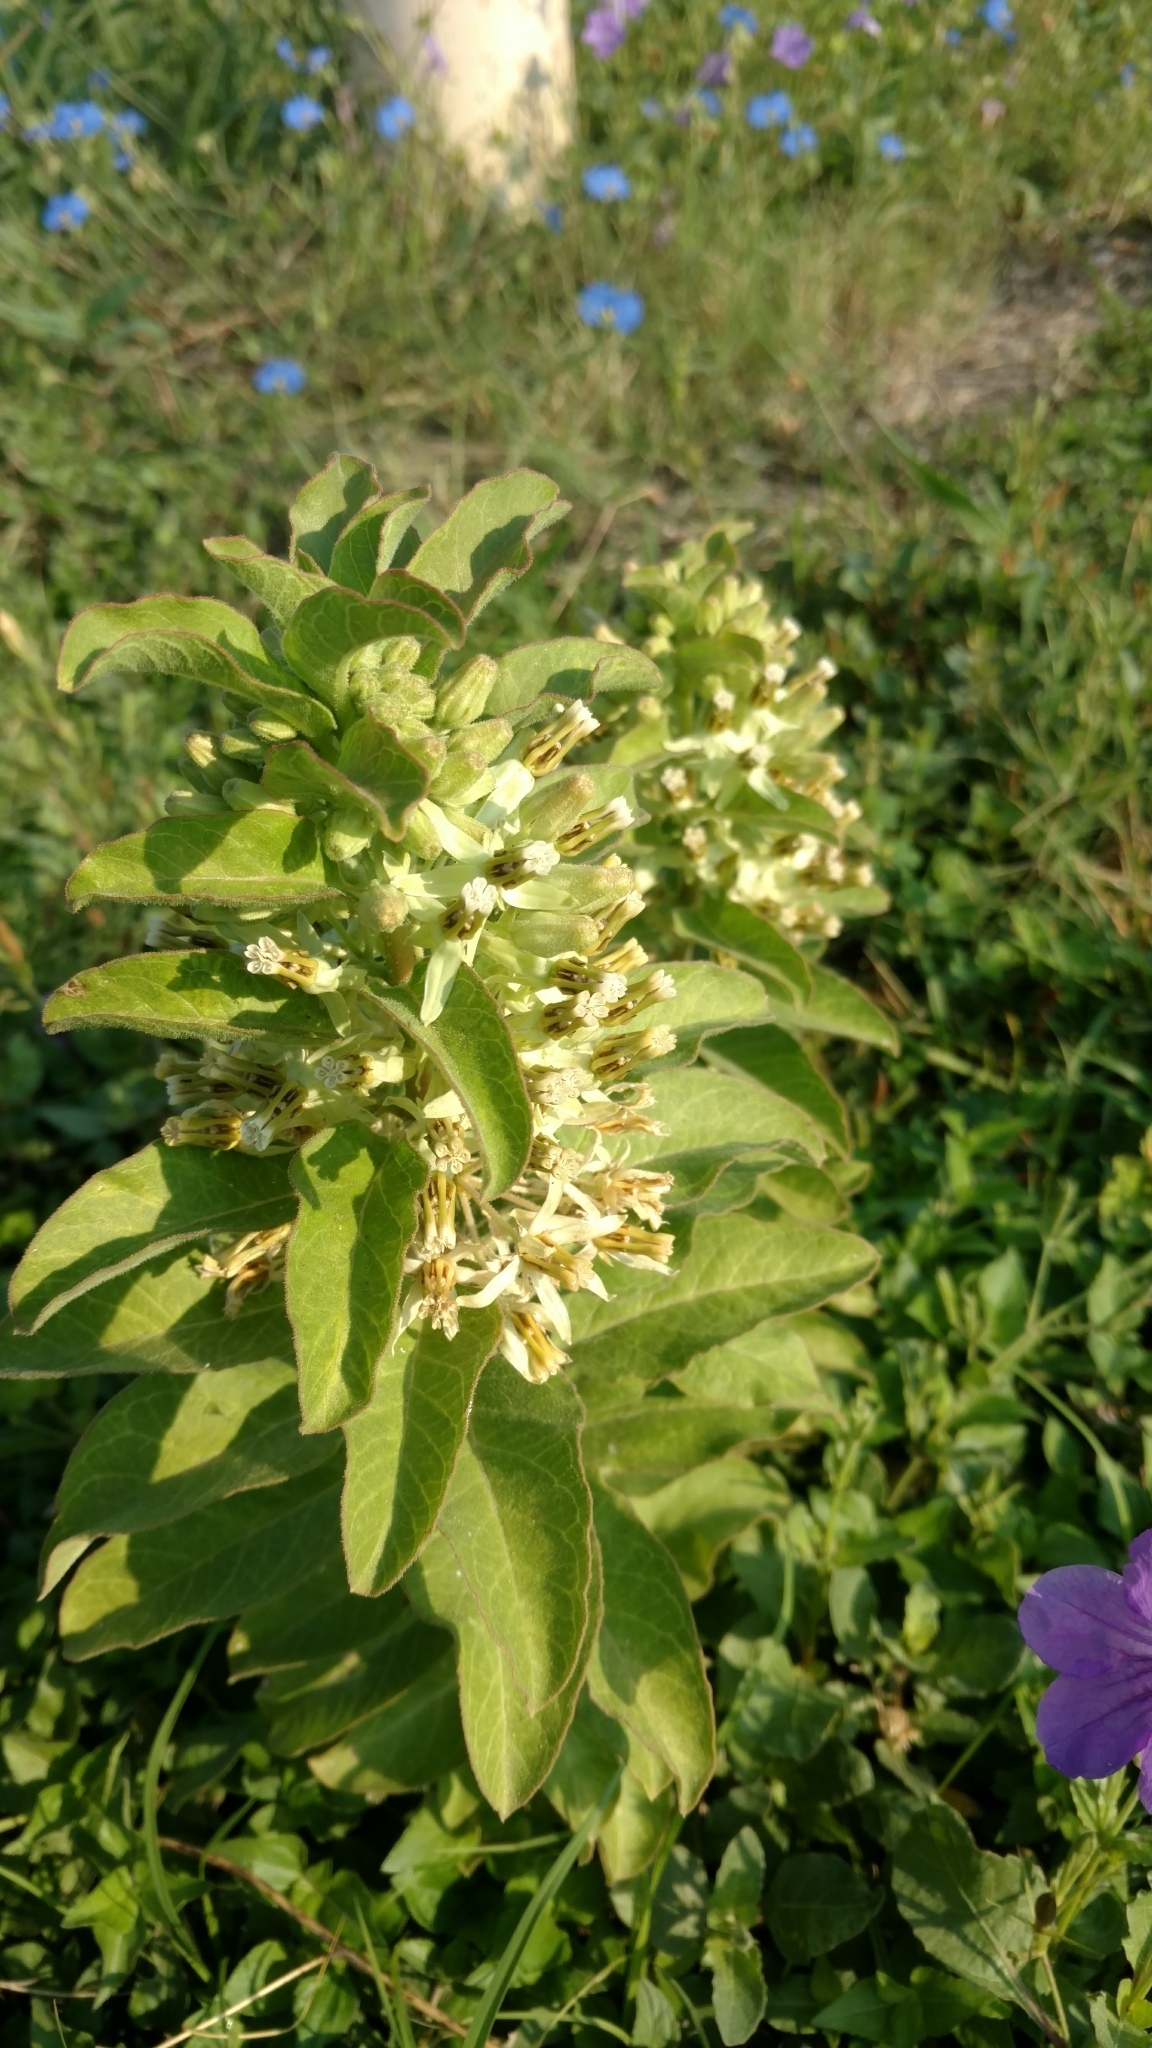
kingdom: Plantae
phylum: Tracheophyta
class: Magnoliopsida
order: Gentianales
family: Apocynaceae
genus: Asclepias
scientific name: Asclepias oenotheroides
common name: Zizotes milkweed
